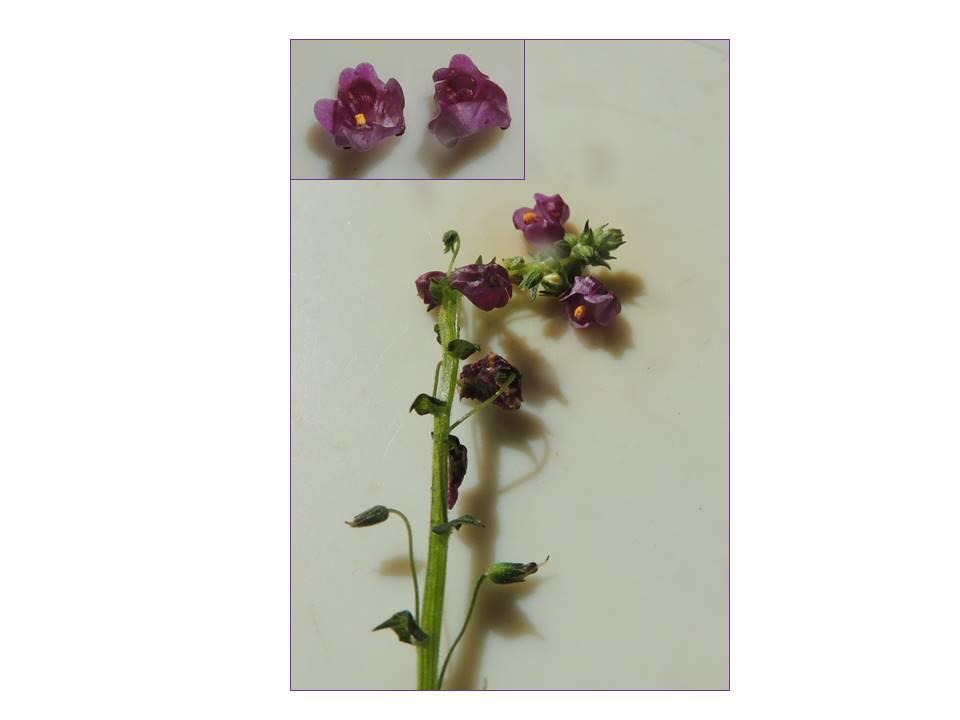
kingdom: Plantae
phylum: Tracheophyta
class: Magnoliopsida
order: Lamiales
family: Scrophulariaceae
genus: Diascia
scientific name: Diascia parviflora
